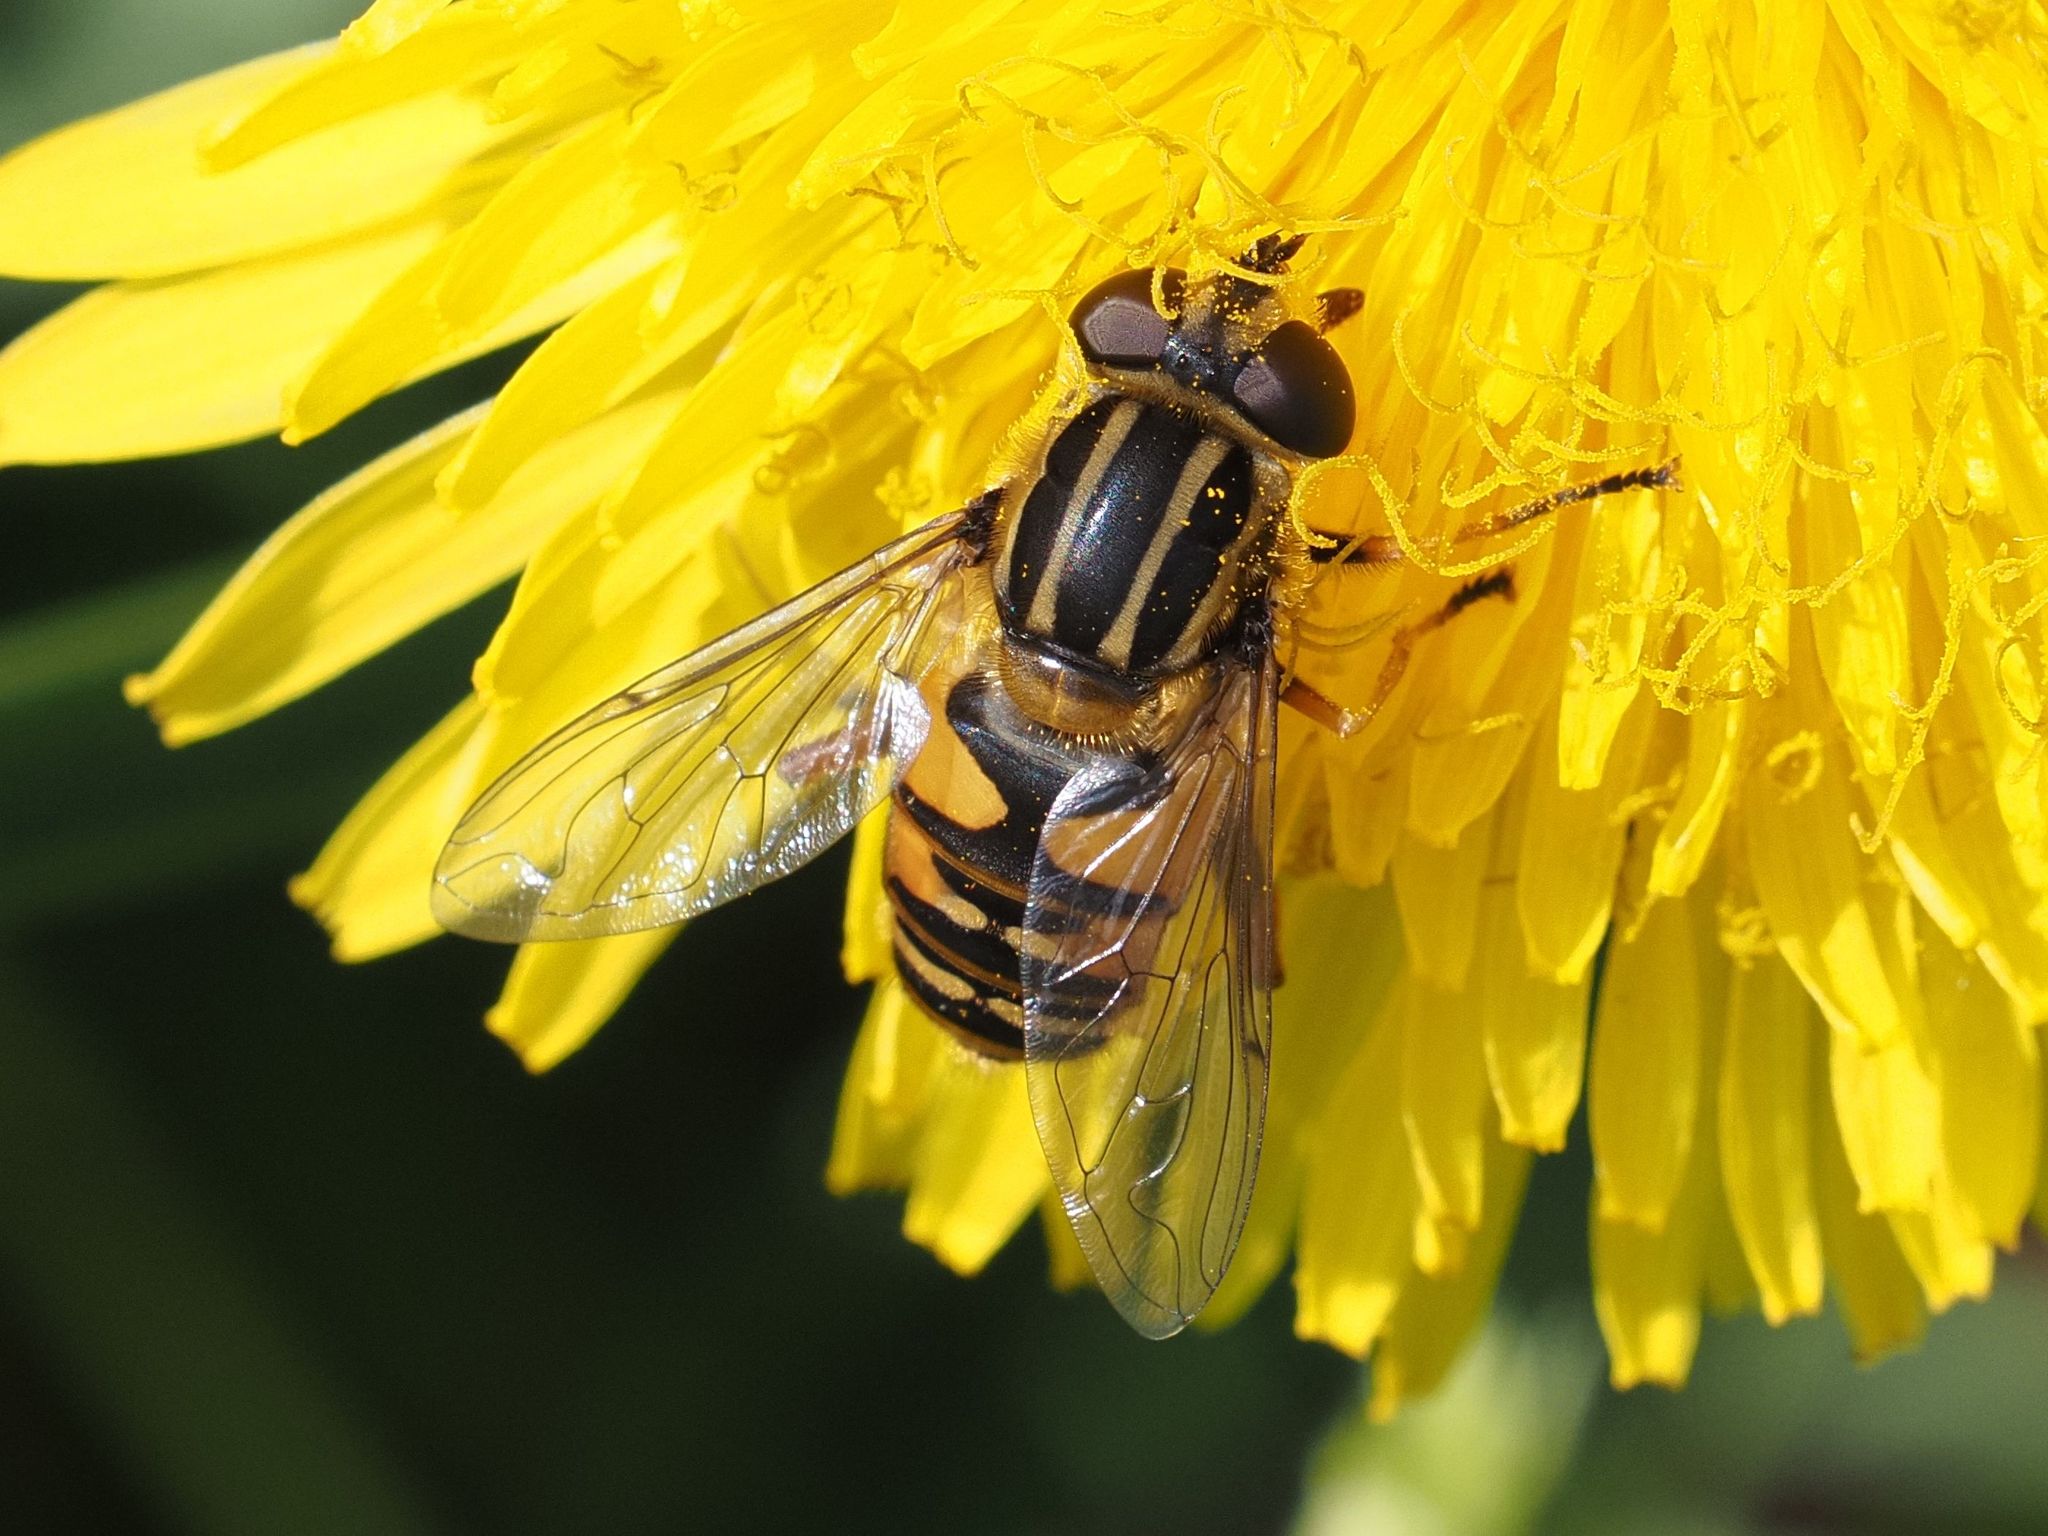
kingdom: Animalia
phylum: Arthropoda
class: Insecta
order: Diptera
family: Syrphidae
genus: Helophilus
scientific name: Helophilus pendulus
